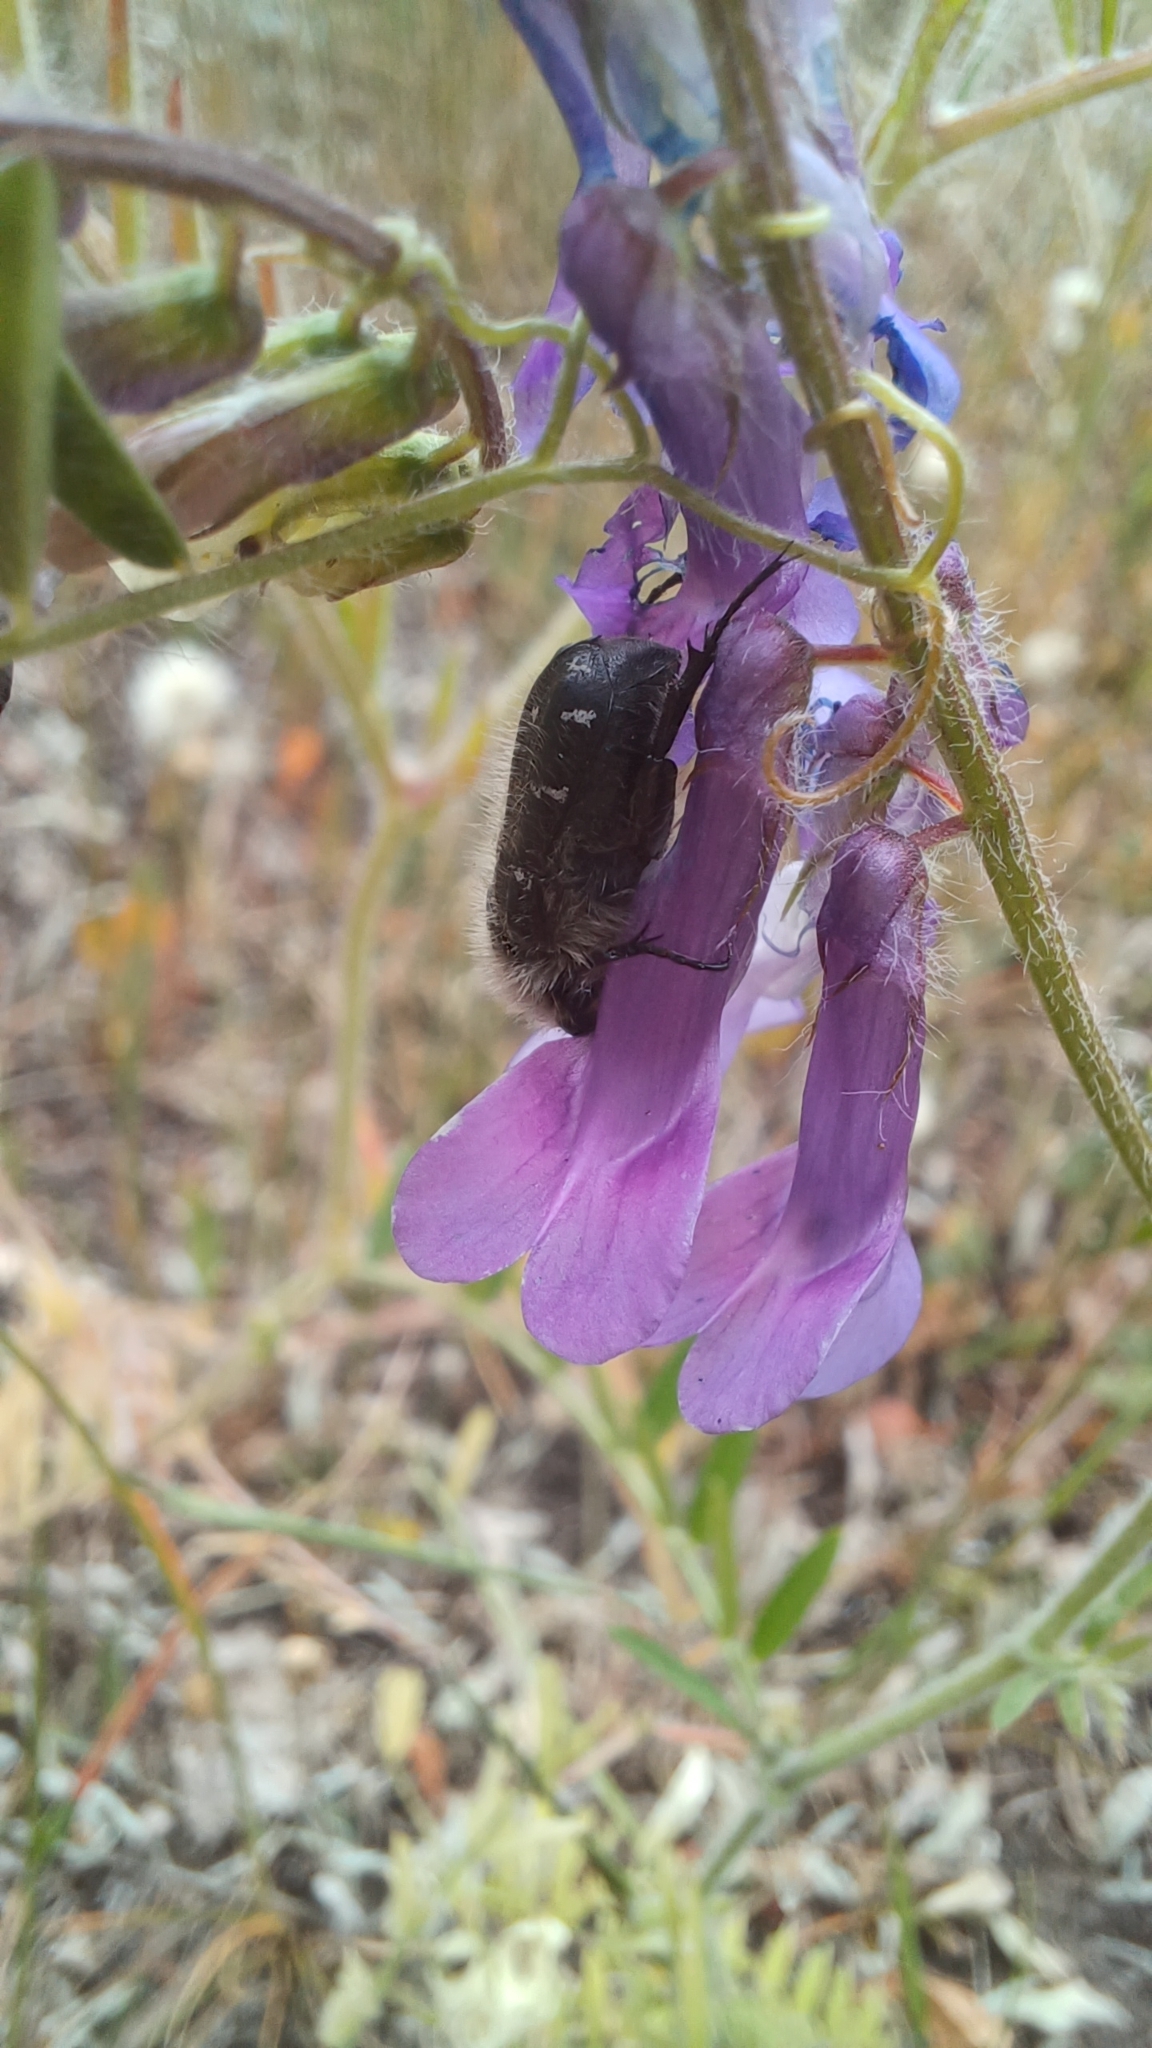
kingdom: Animalia
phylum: Arthropoda
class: Insecta
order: Coleoptera
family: Scarabaeidae
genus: Tropinota
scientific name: Tropinota hirta
